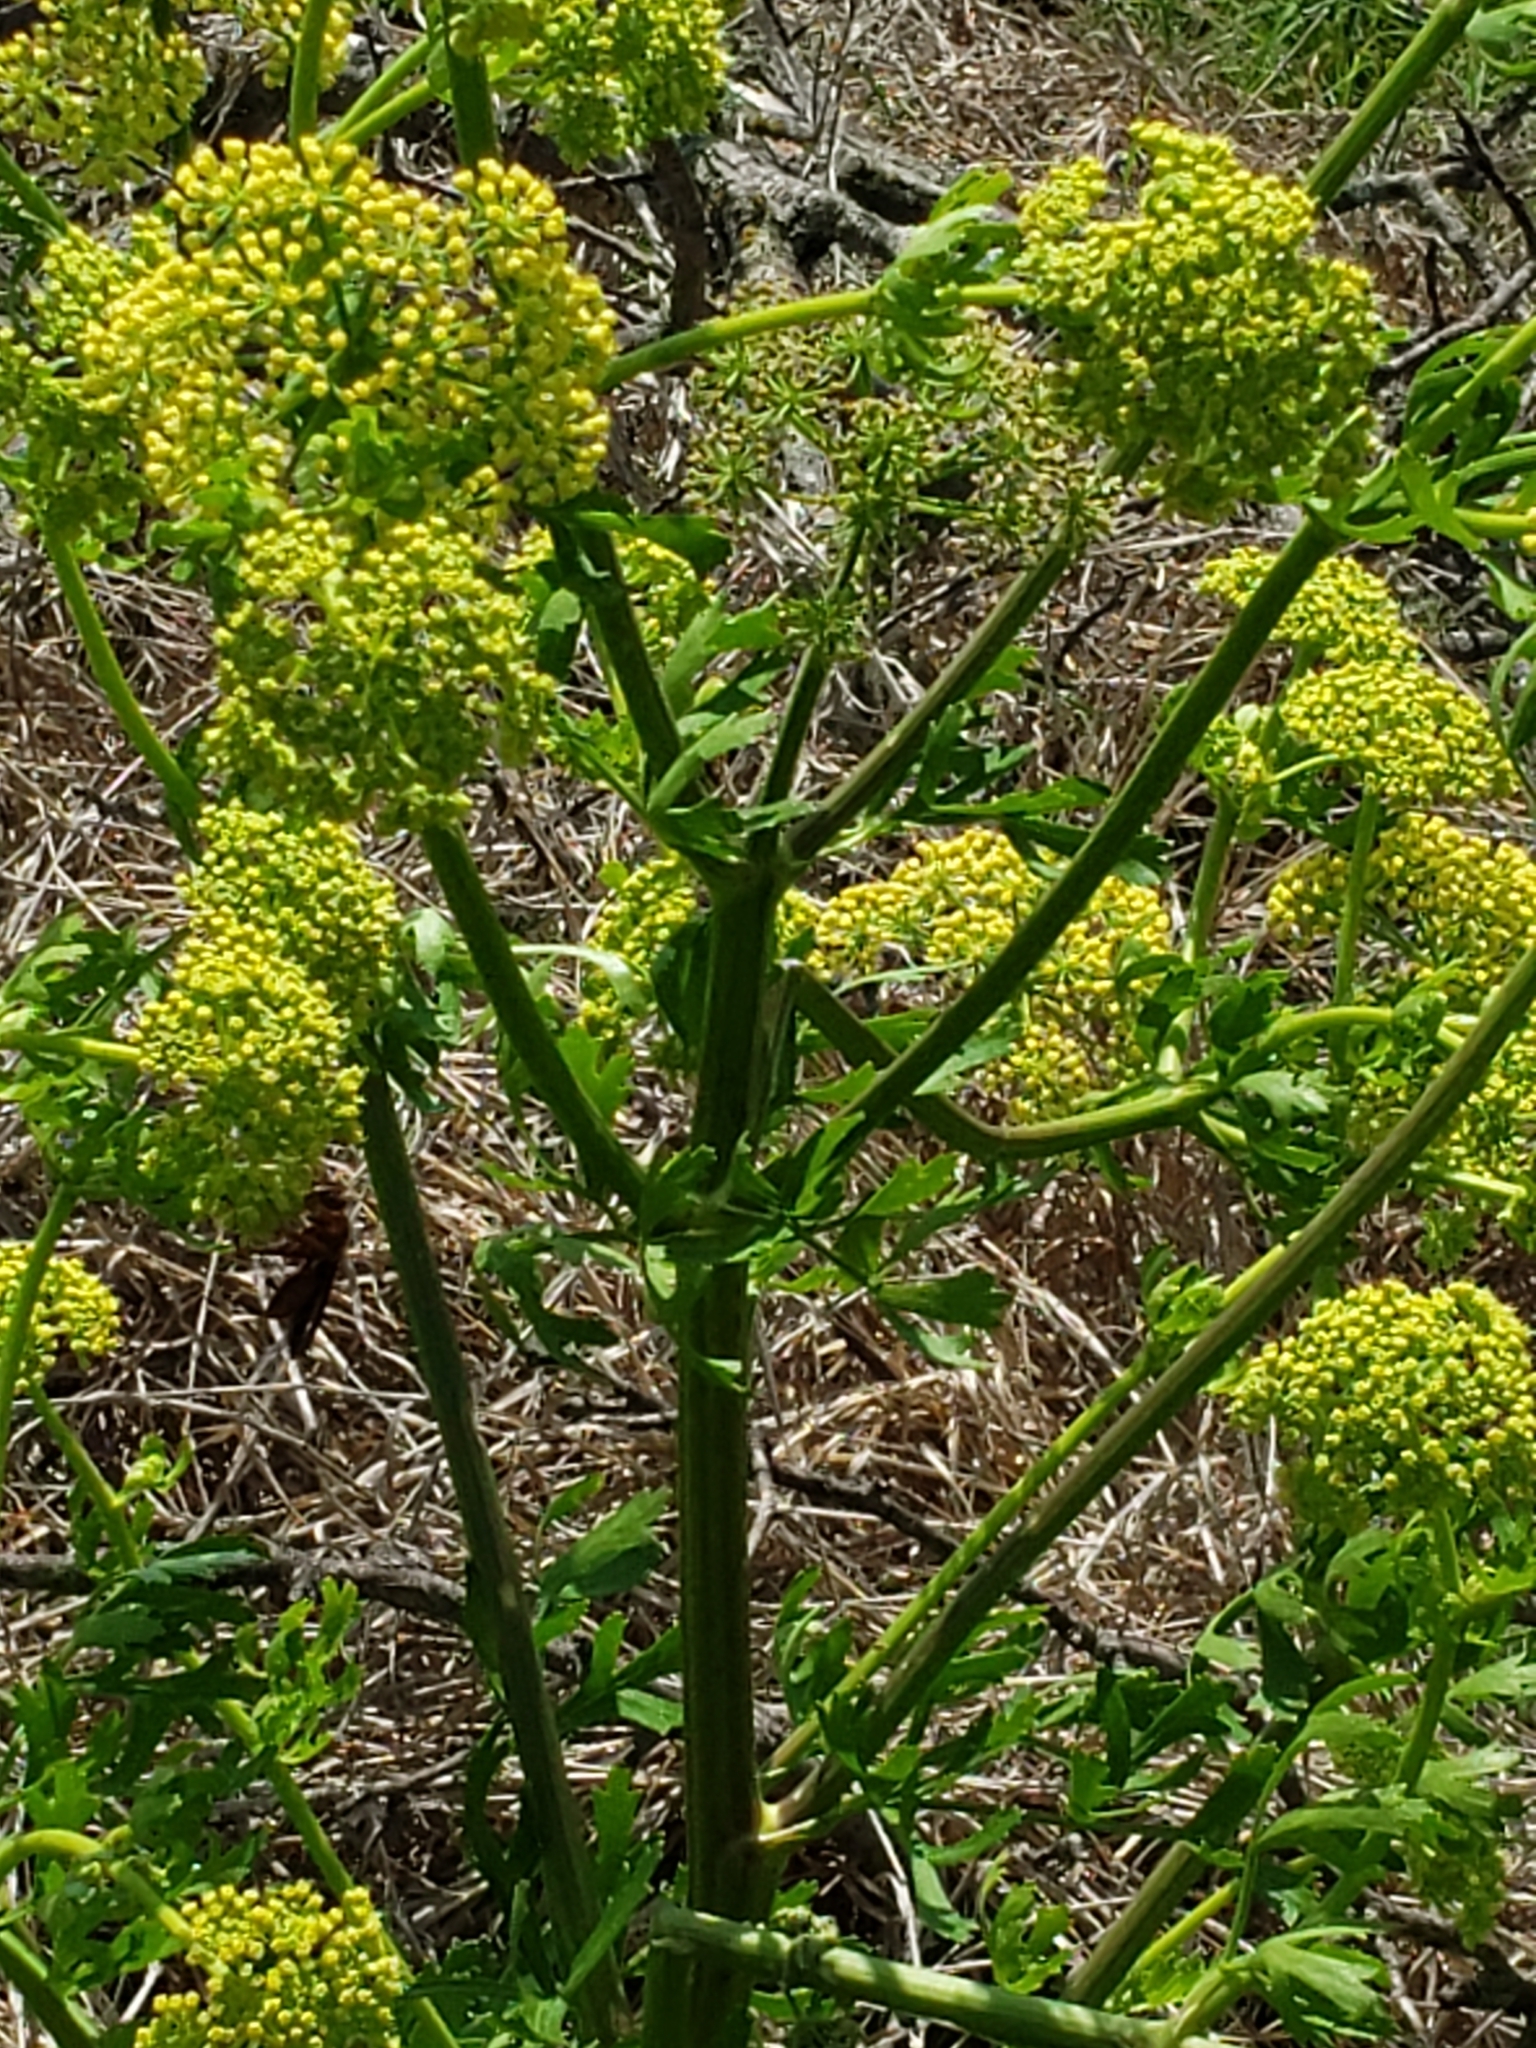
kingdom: Plantae
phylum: Tracheophyta
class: Magnoliopsida
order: Apiales
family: Apiaceae
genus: Polytaenia
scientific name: Polytaenia texana
